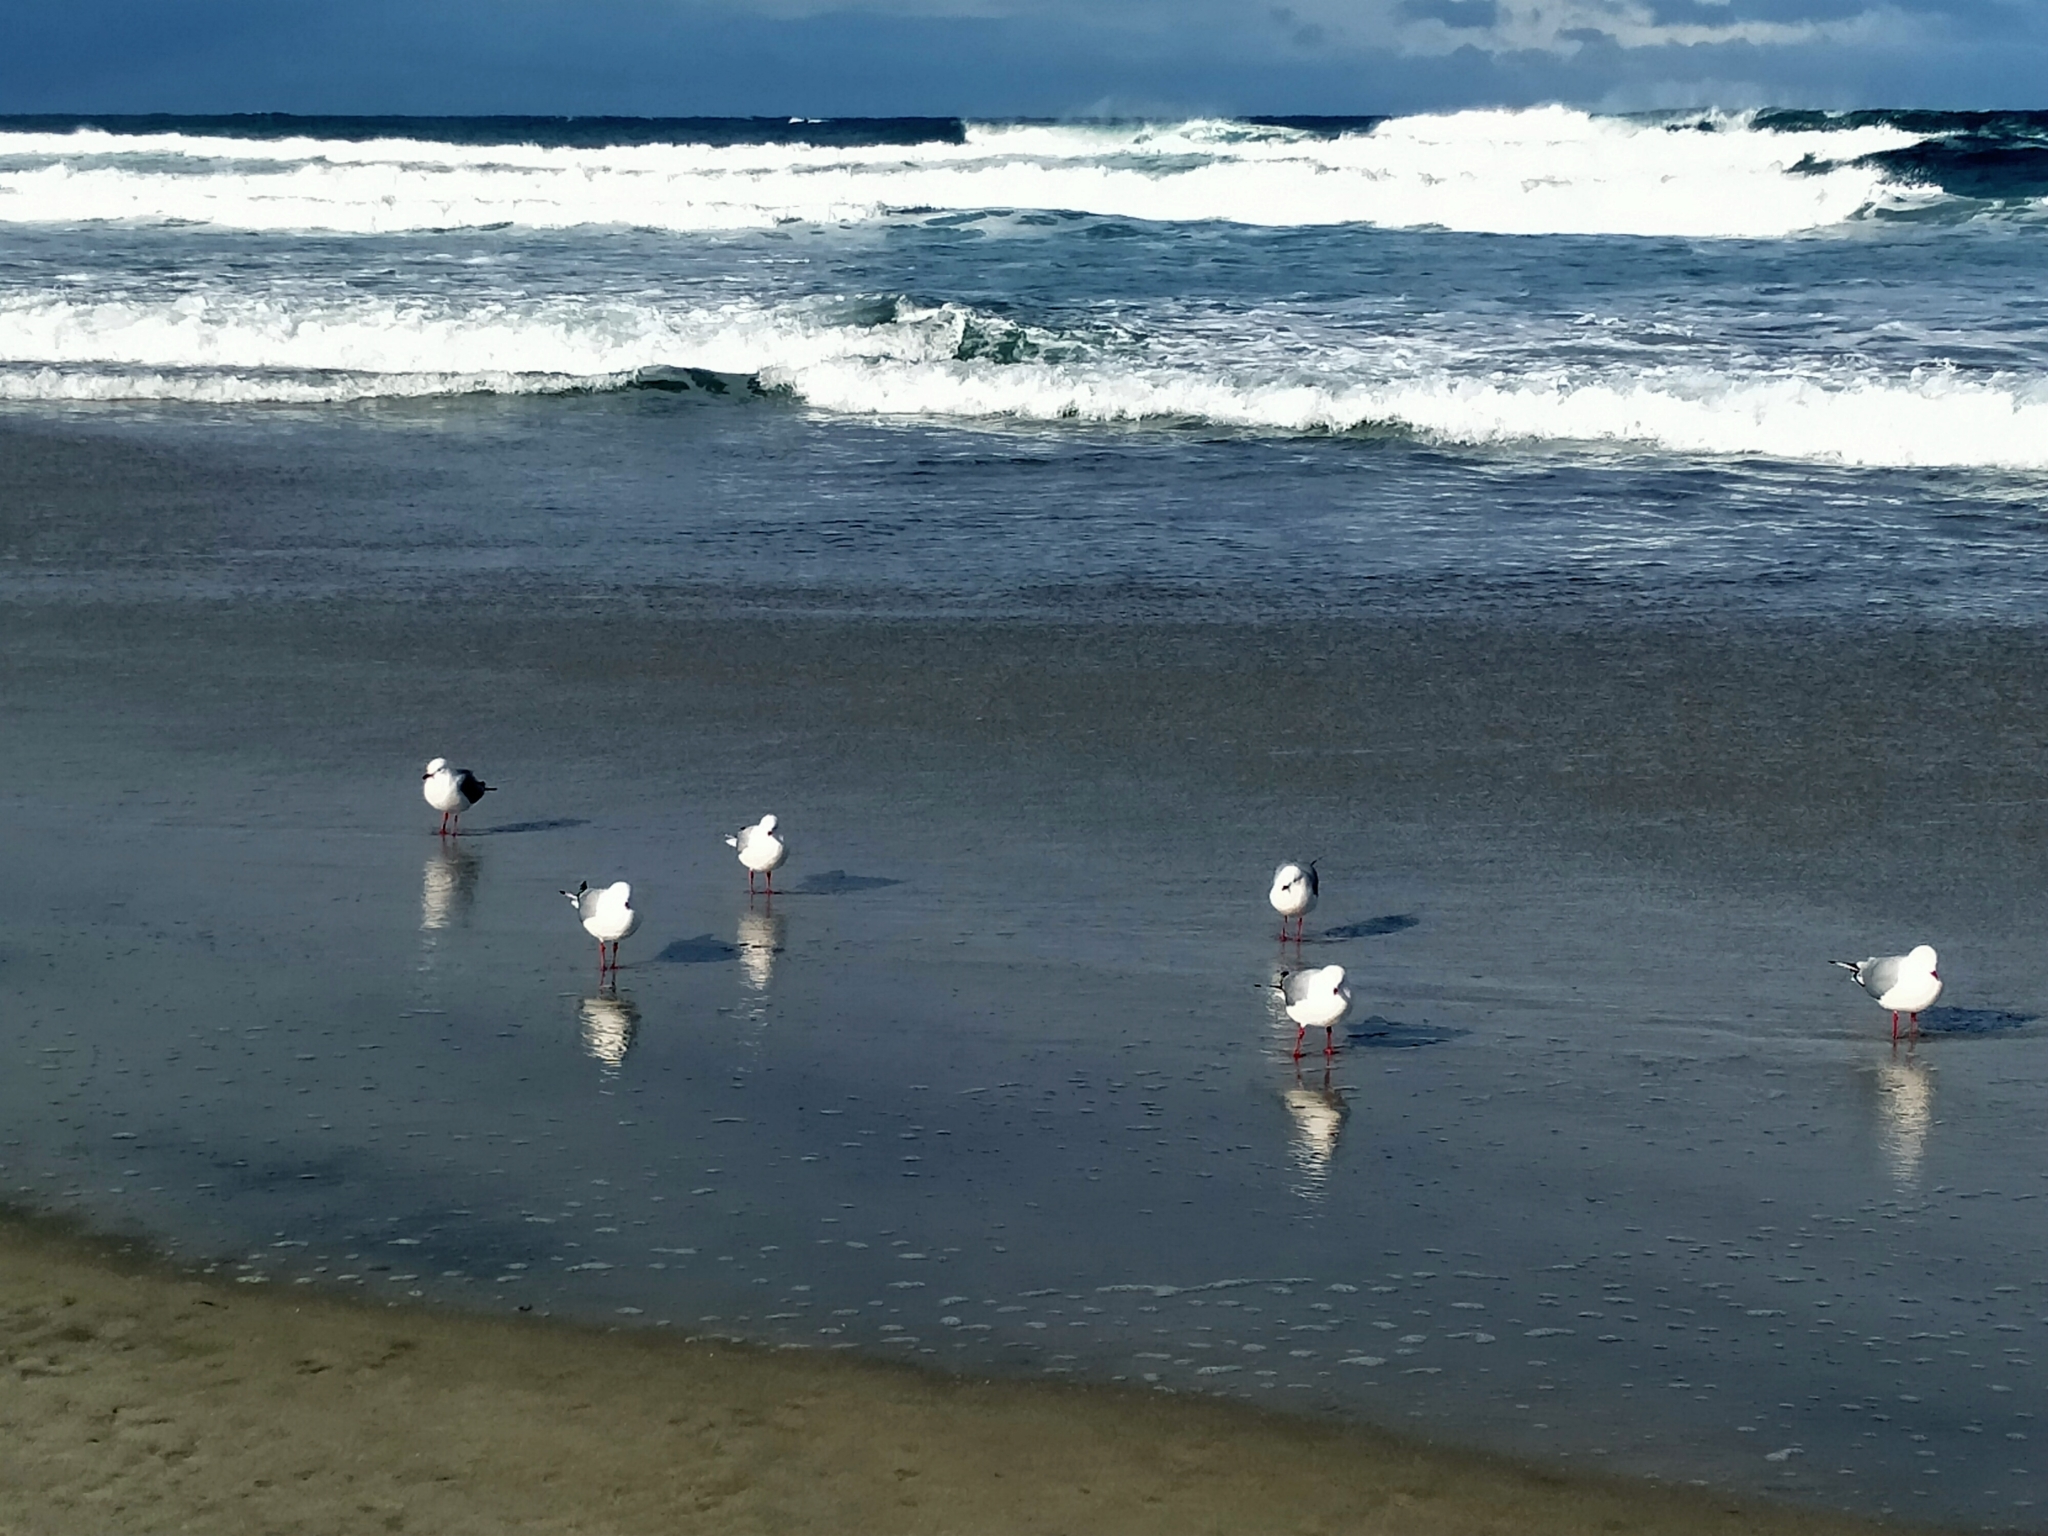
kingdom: Animalia
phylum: Chordata
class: Aves
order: Charadriiformes
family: Laridae
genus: Chroicocephalus
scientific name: Chroicocephalus novaehollandiae
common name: Silver gull
